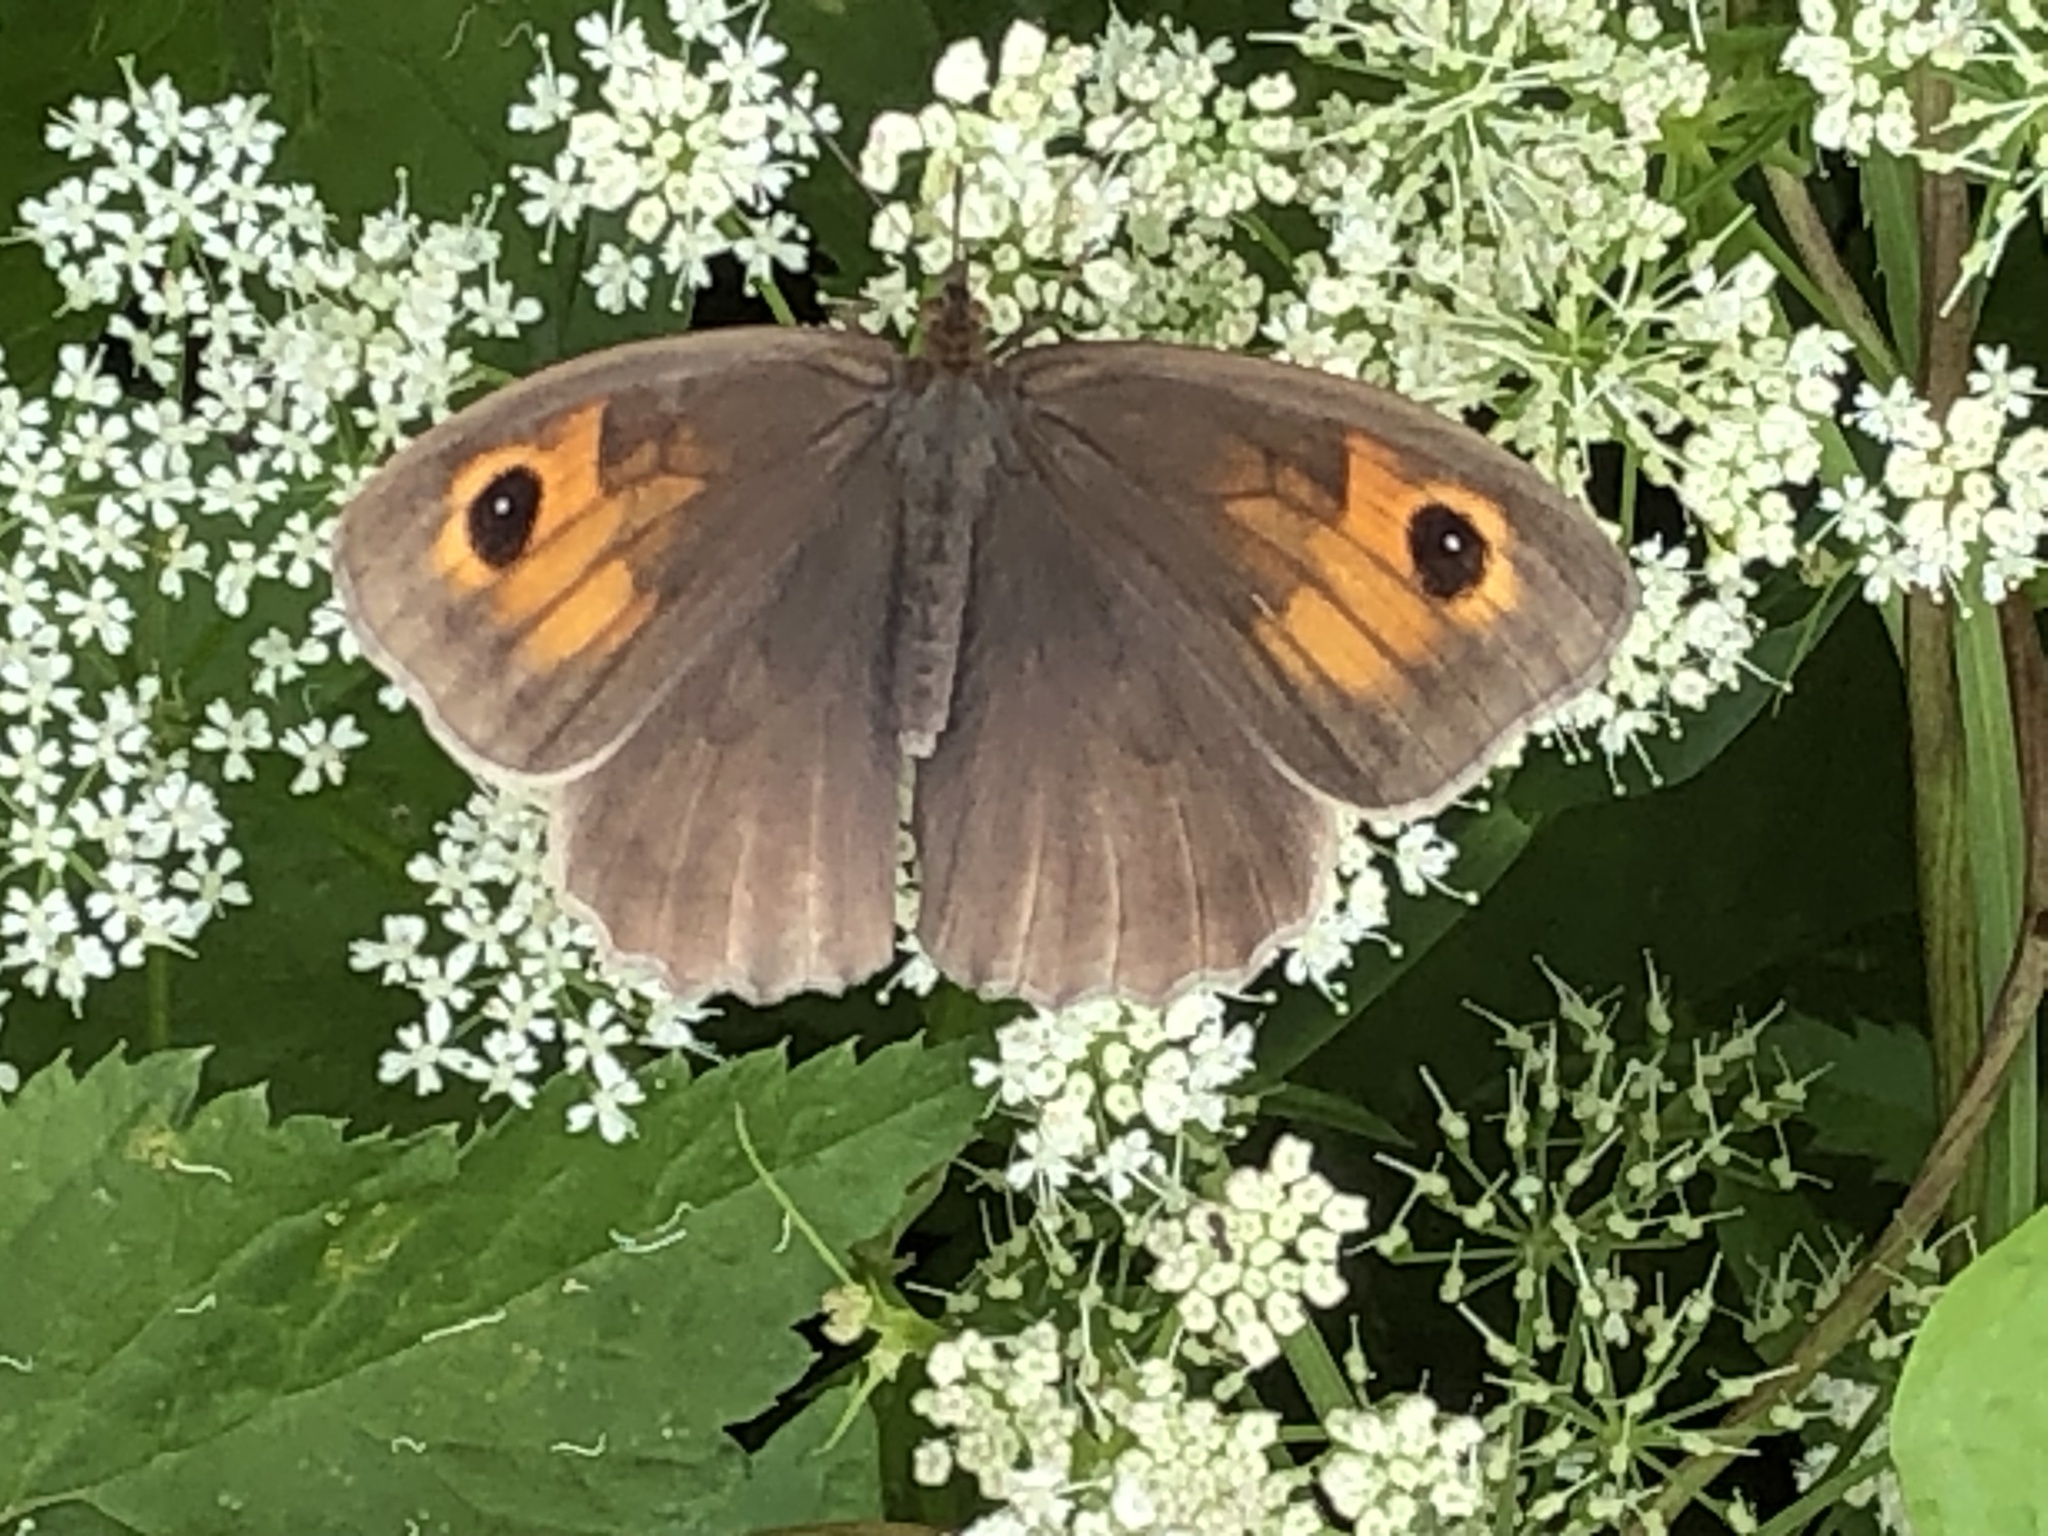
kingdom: Animalia
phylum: Arthropoda
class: Insecta
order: Lepidoptera
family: Nymphalidae
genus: Maniola
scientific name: Maniola jurtina
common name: Meadow brown
